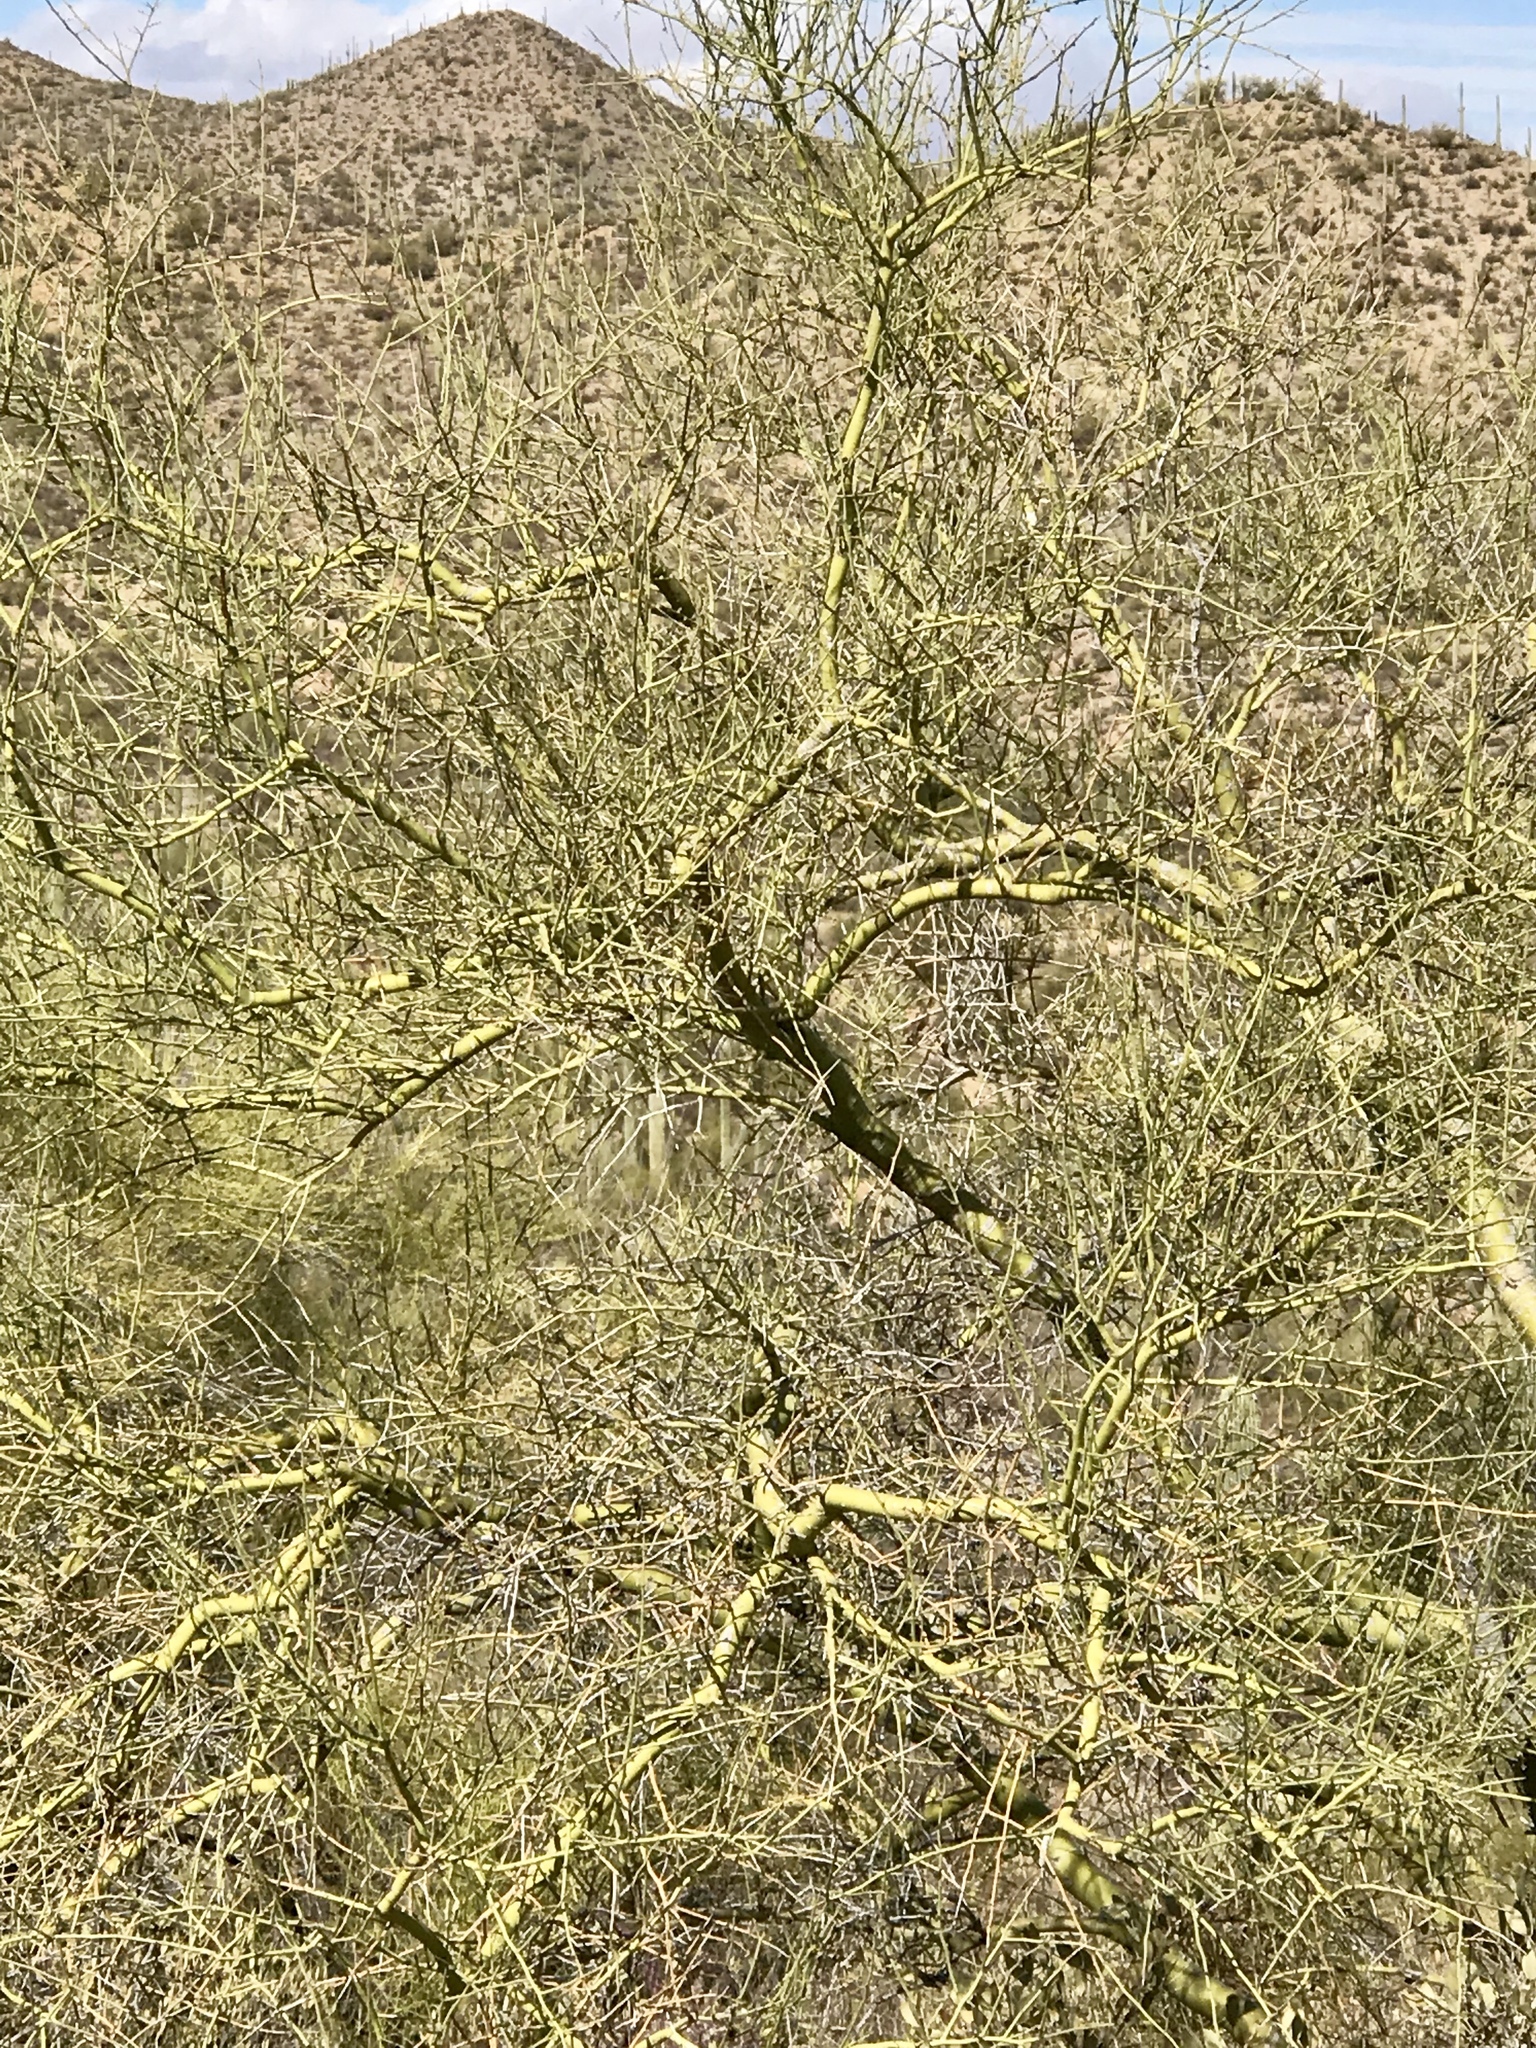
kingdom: Plantae
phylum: Tracheophyta
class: Magnoliopsida
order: Fabales
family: Fabaceae
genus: Parkinsonia
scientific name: Parkinsonia microphylla
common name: Yellow paloverde
